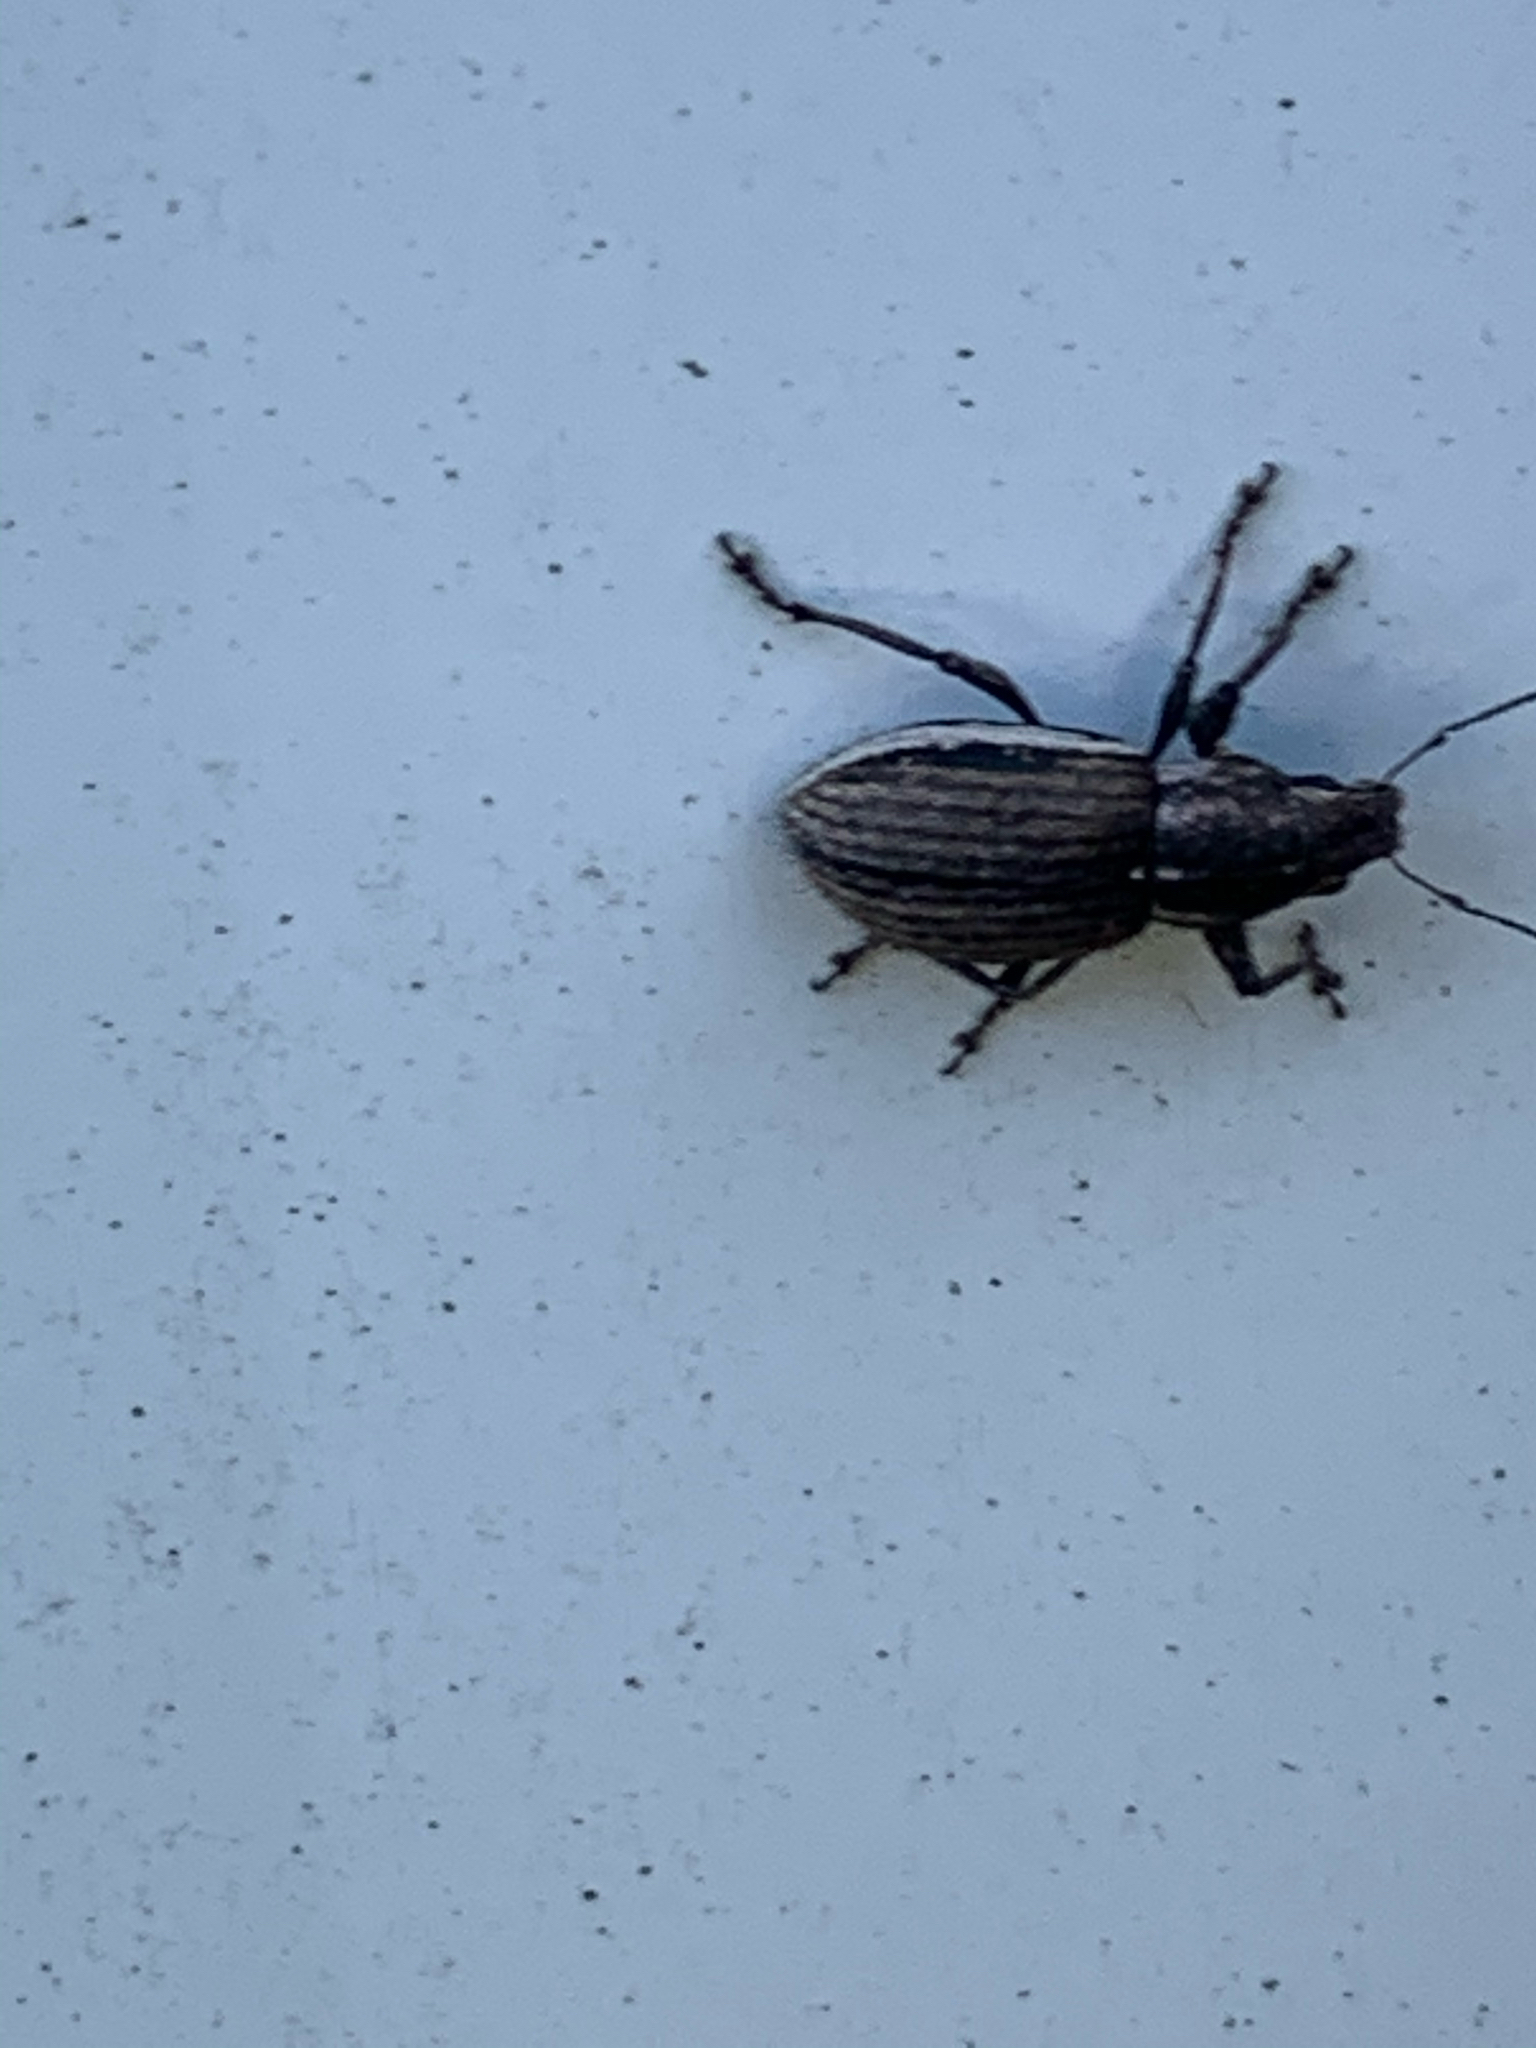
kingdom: Animalia
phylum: Arthropoda
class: Insecta
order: Coleoptera
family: Curculionidae
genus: Naupactus
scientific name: Naupactus leucoloma
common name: Whitefringed beetle
